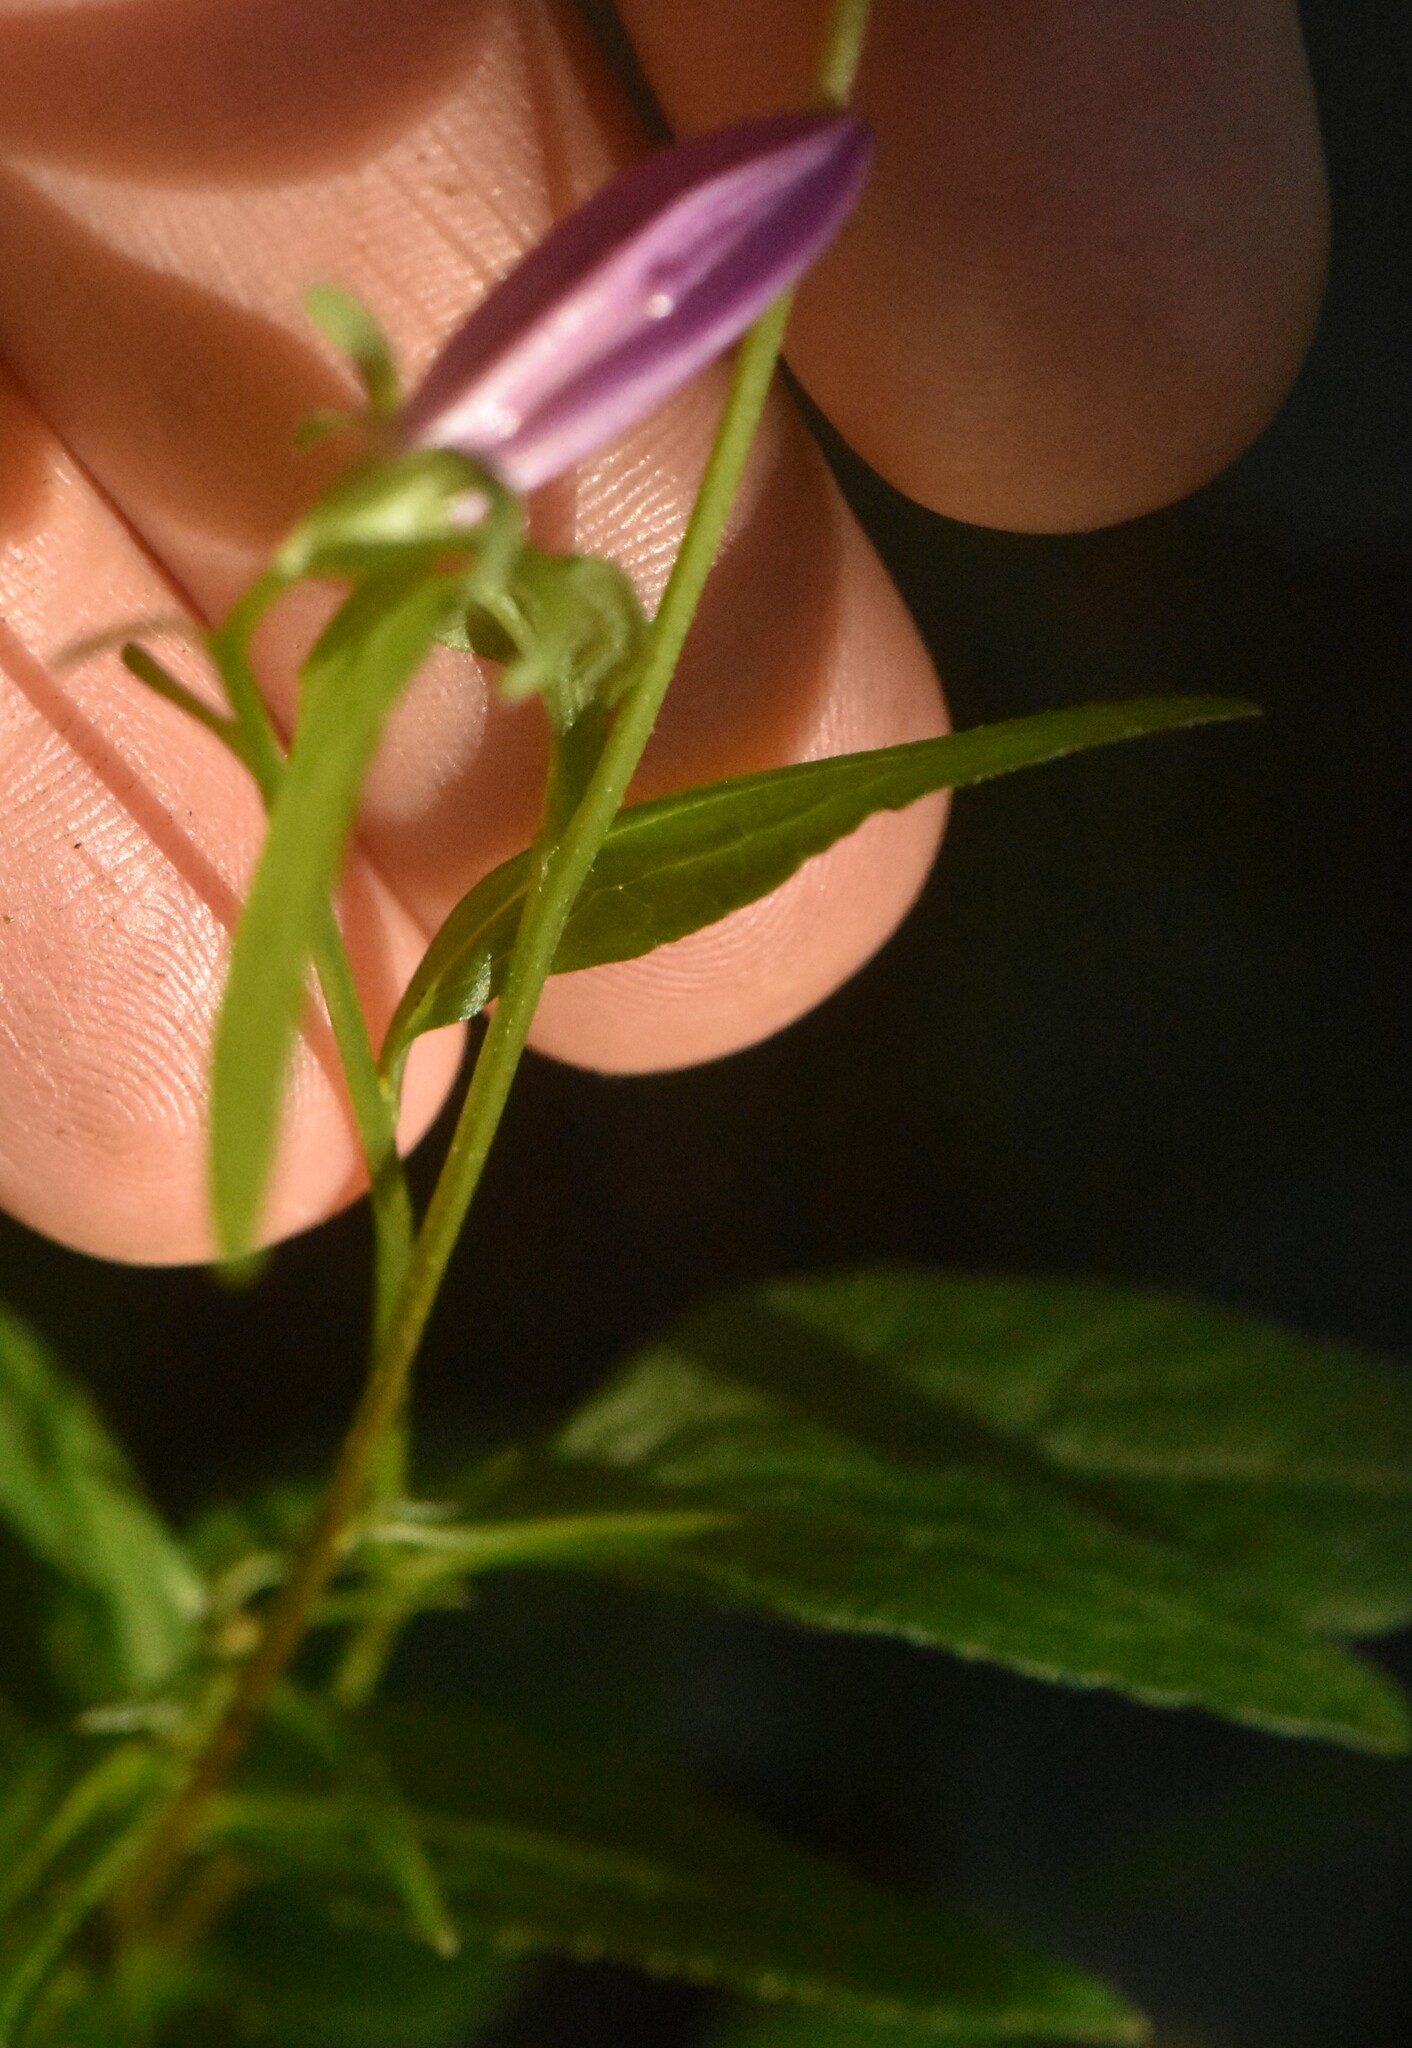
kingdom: Plantae
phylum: Tracheophyta
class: Magnoliopsida
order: Asterales
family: Campanulaceae
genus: Campanula
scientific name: Campanula rapunculoides
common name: Creeping bellflower
